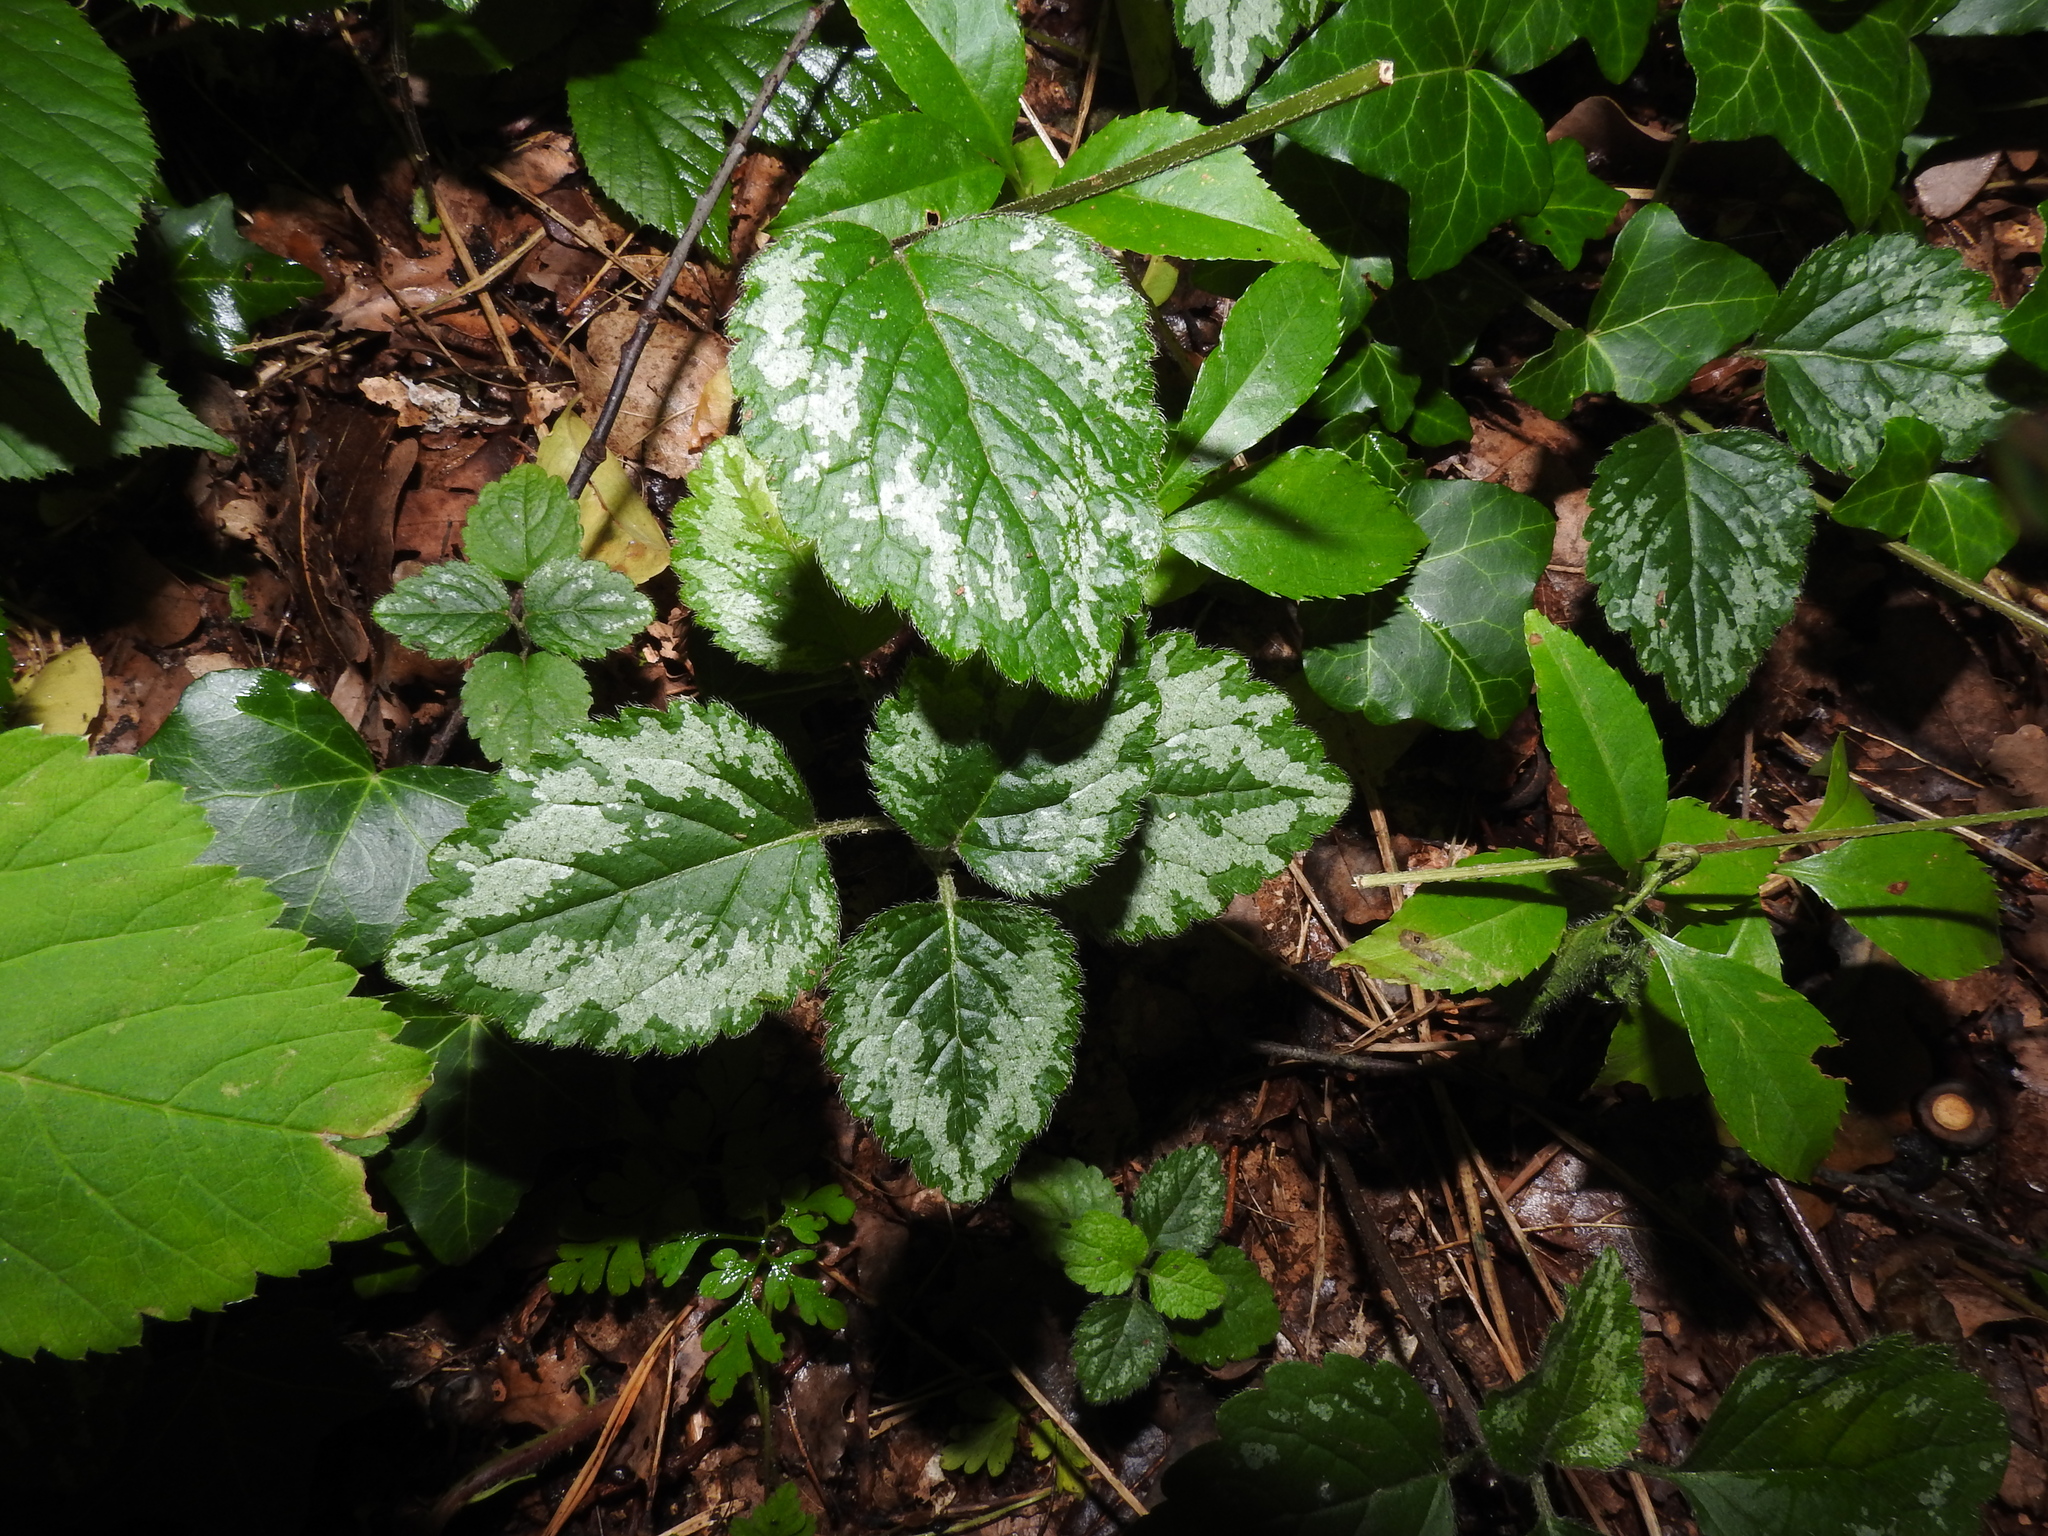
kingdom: Plantae
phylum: Tracheophyta
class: Magnoliopsida
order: Lamiales
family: Lamiaceae
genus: Lamium
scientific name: Lamium galeobdolon
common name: Yellow archangel
